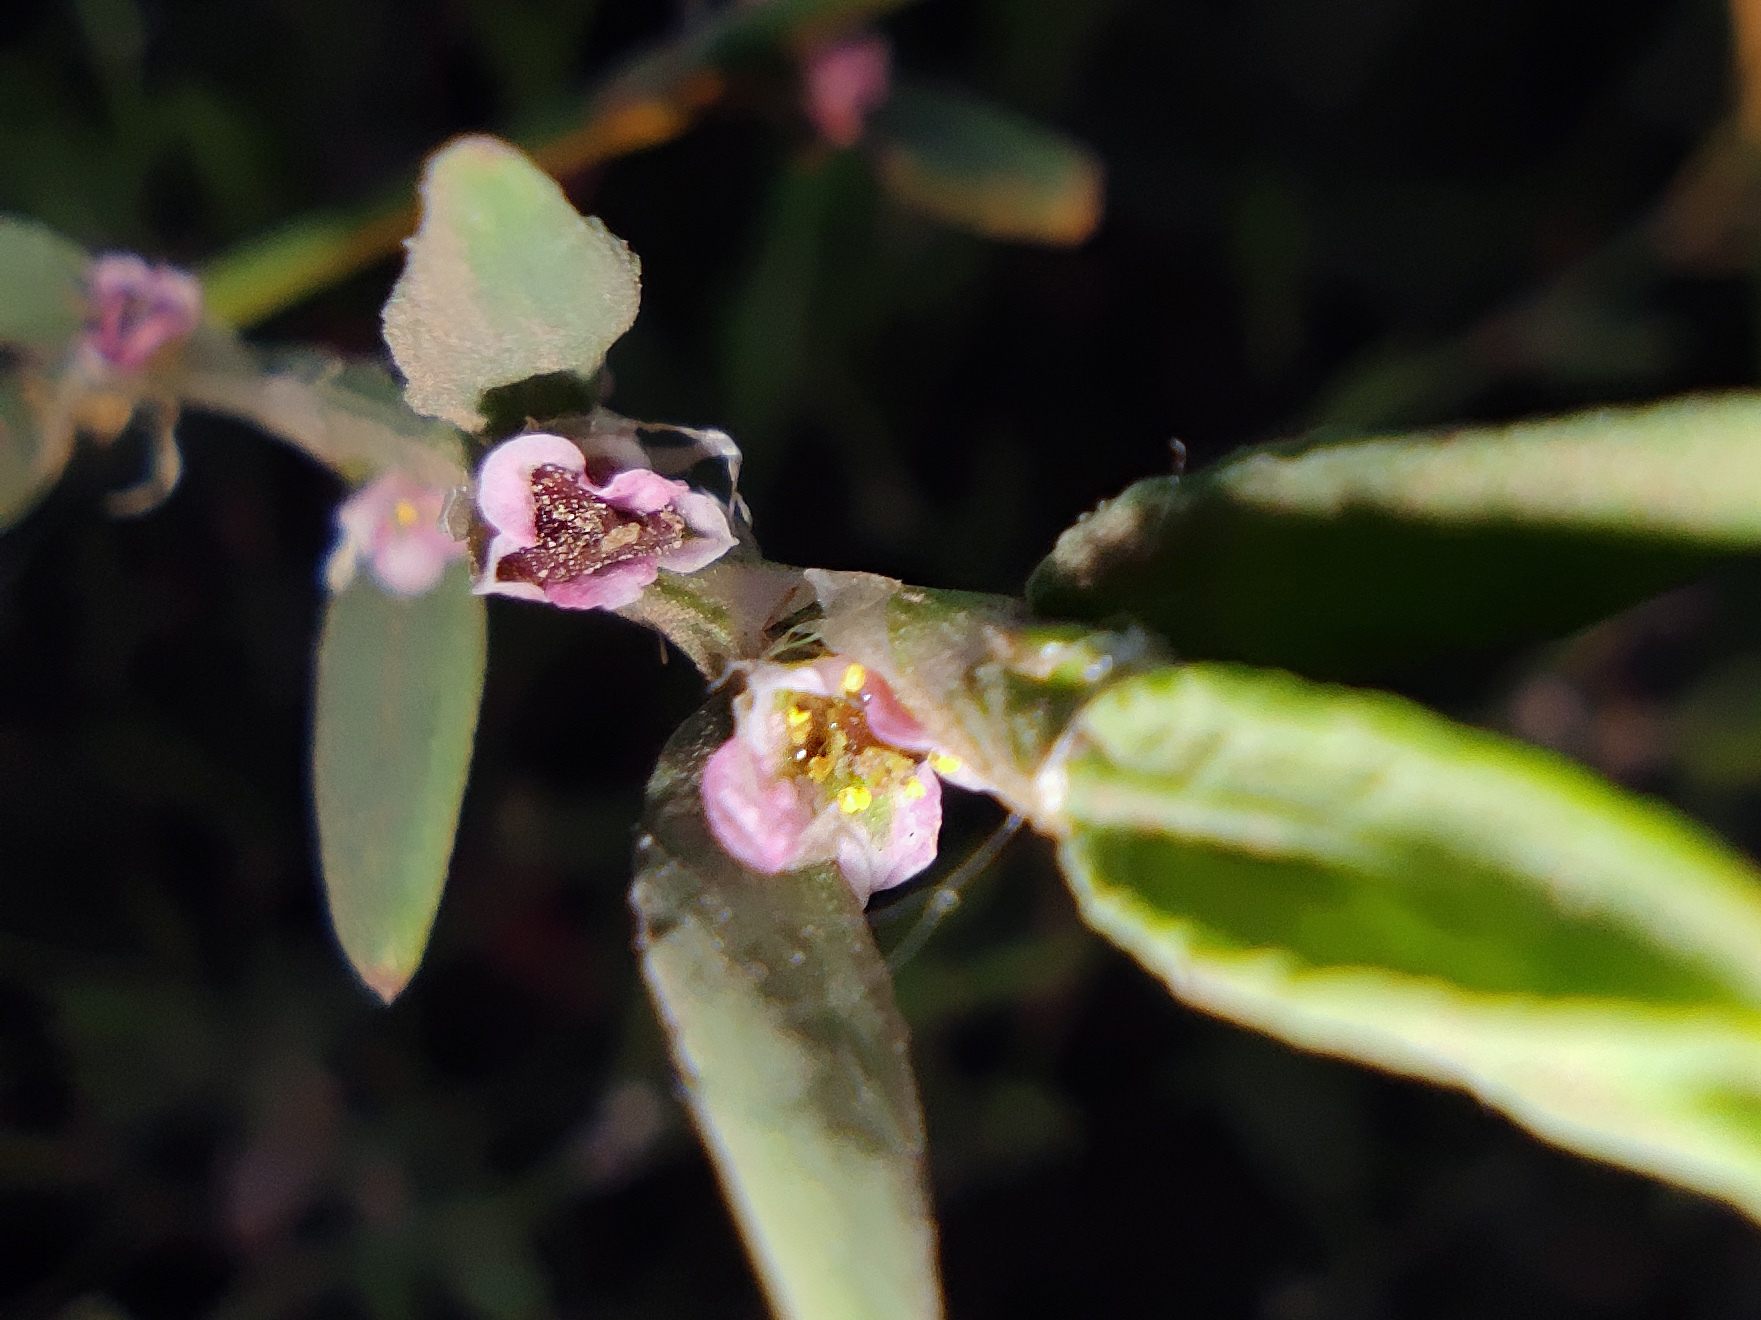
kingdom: Plantae
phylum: Tracheophyta
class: Magnoliopsida
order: Caryophyllales
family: Polygonaceae
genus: Polygonum
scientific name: Polygonum aviculare
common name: Prostrate knotweed
